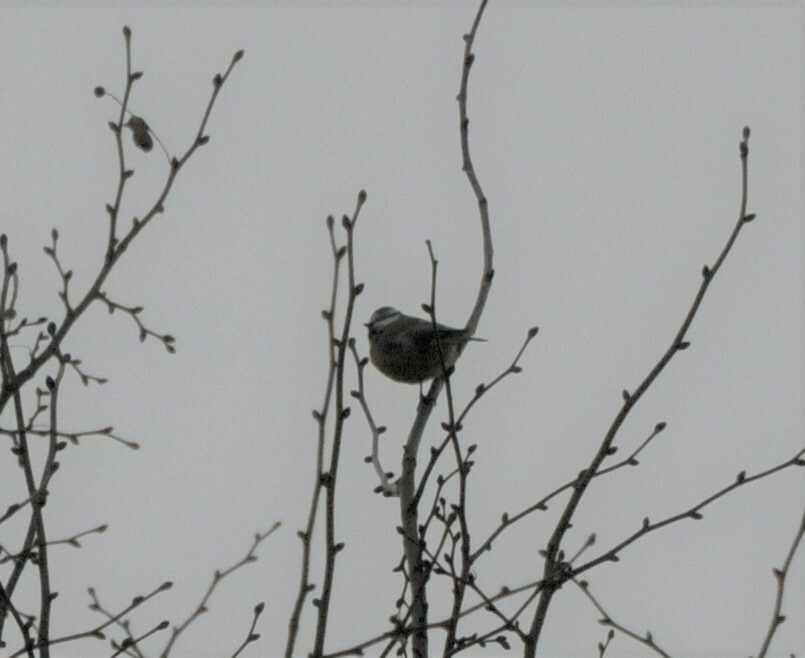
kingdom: Animalia
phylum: Chordata
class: Aves
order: Passeriformes
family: Paridae
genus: Cyanistes
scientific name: Cyanistes caeruleus
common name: Eurasian blue tit
